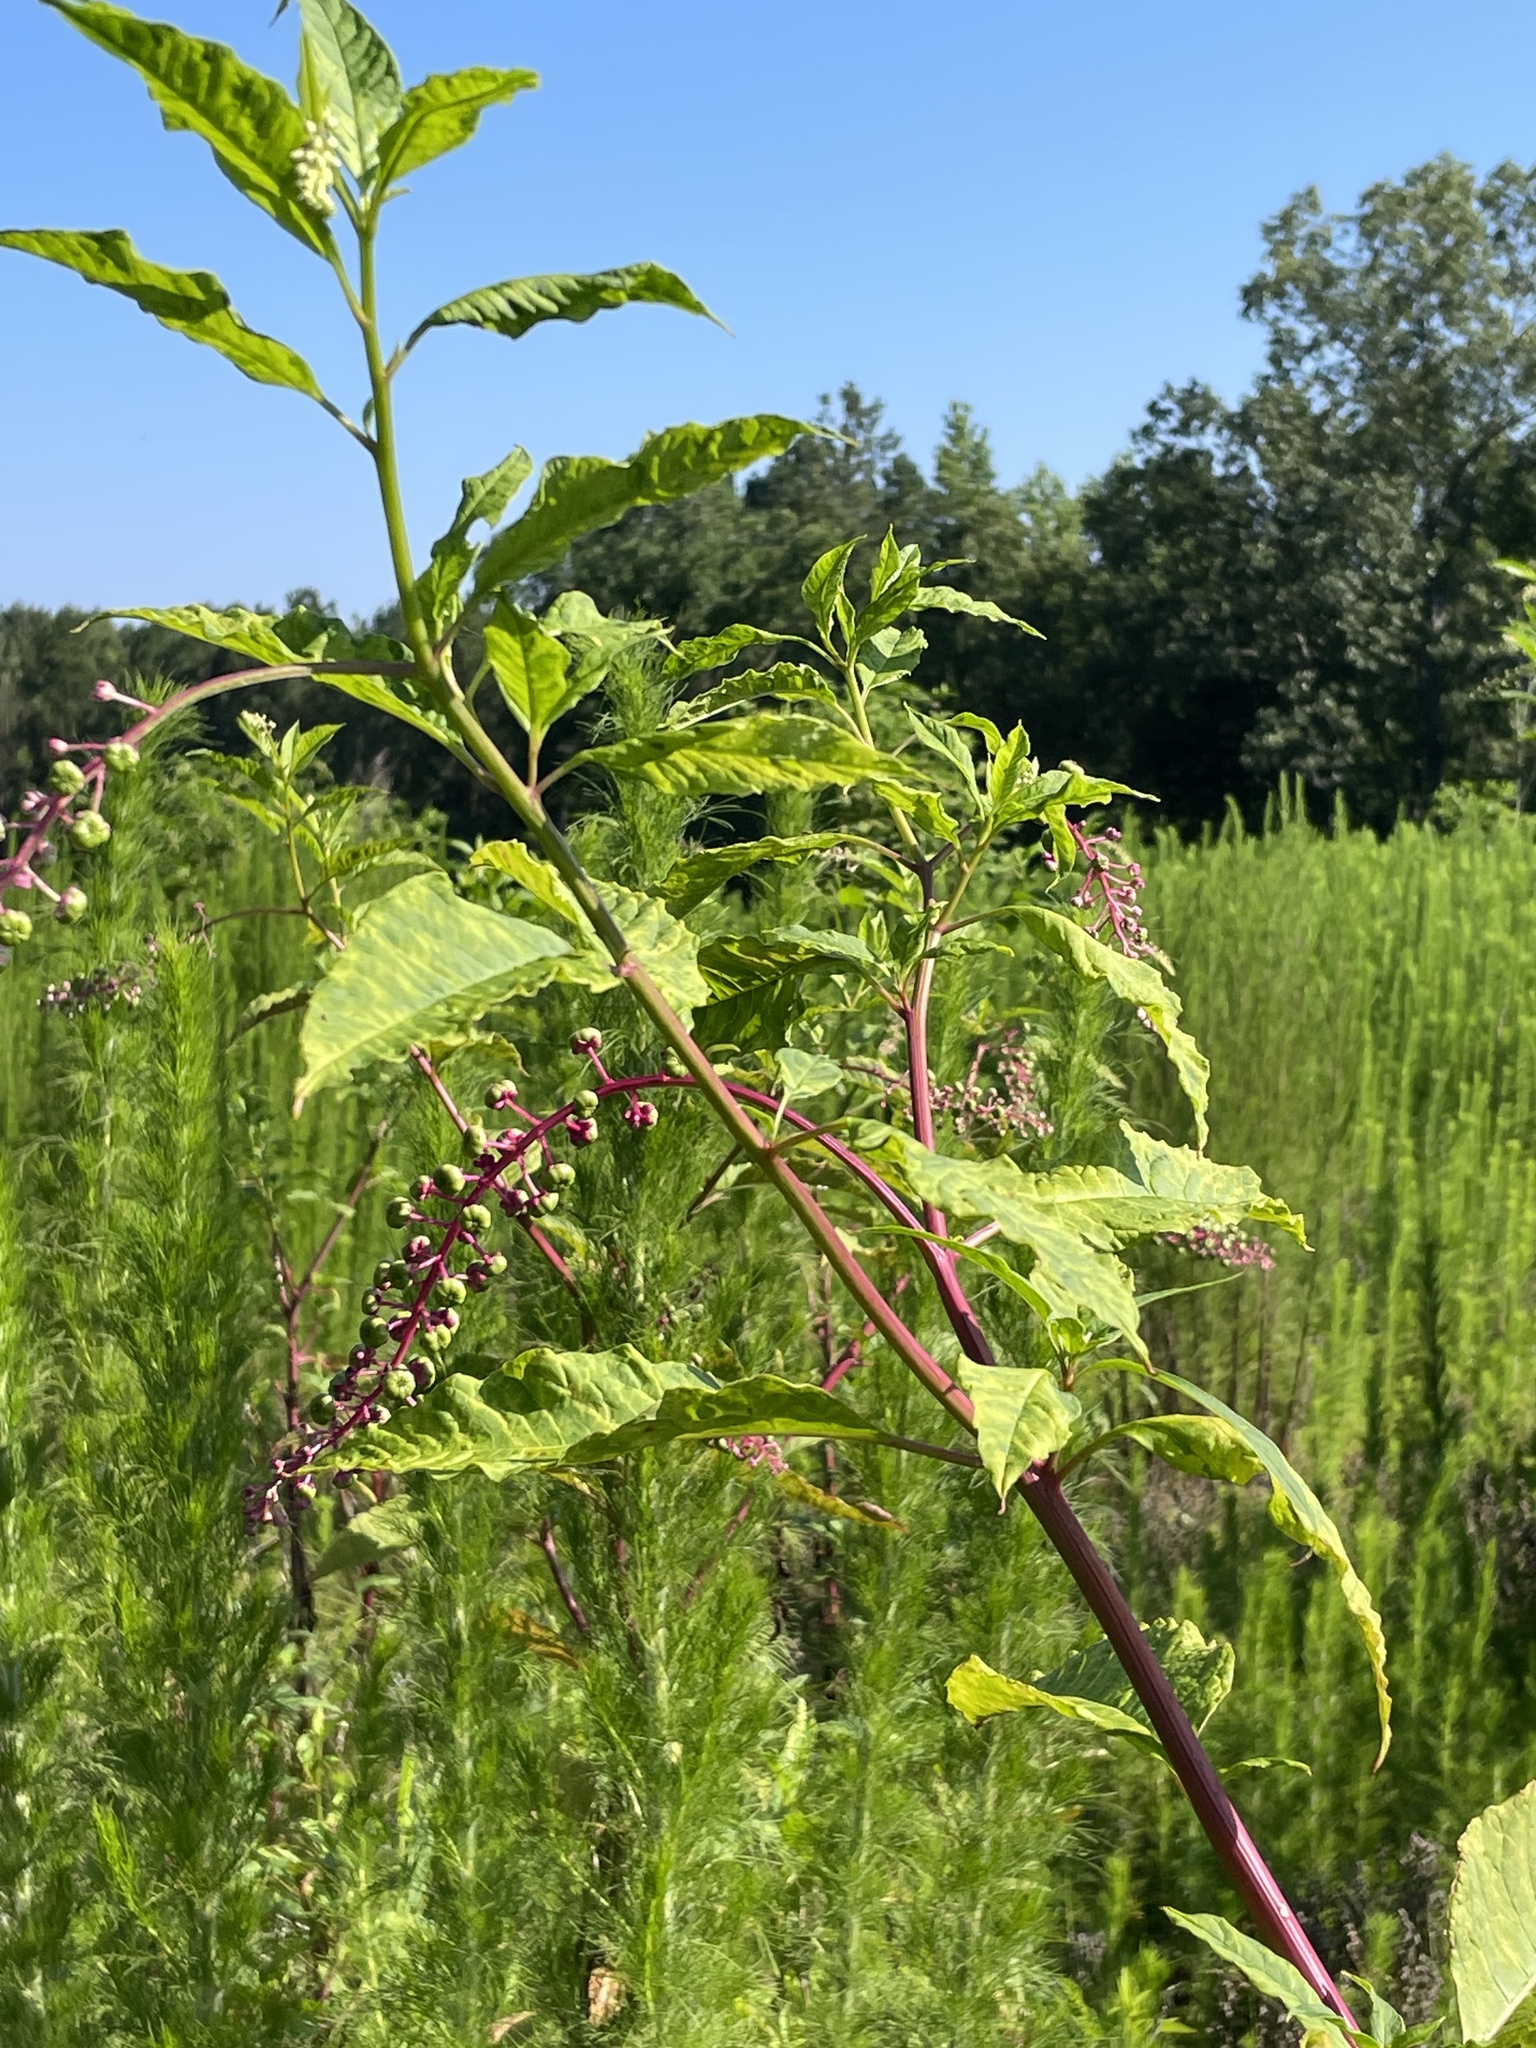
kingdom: Plantae
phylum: Tracheophyta
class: Magnoliopsida
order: Caryophyllales
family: Phytolaccaceae
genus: Phytolacca
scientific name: Phytolacca americana
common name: American pokeweed
